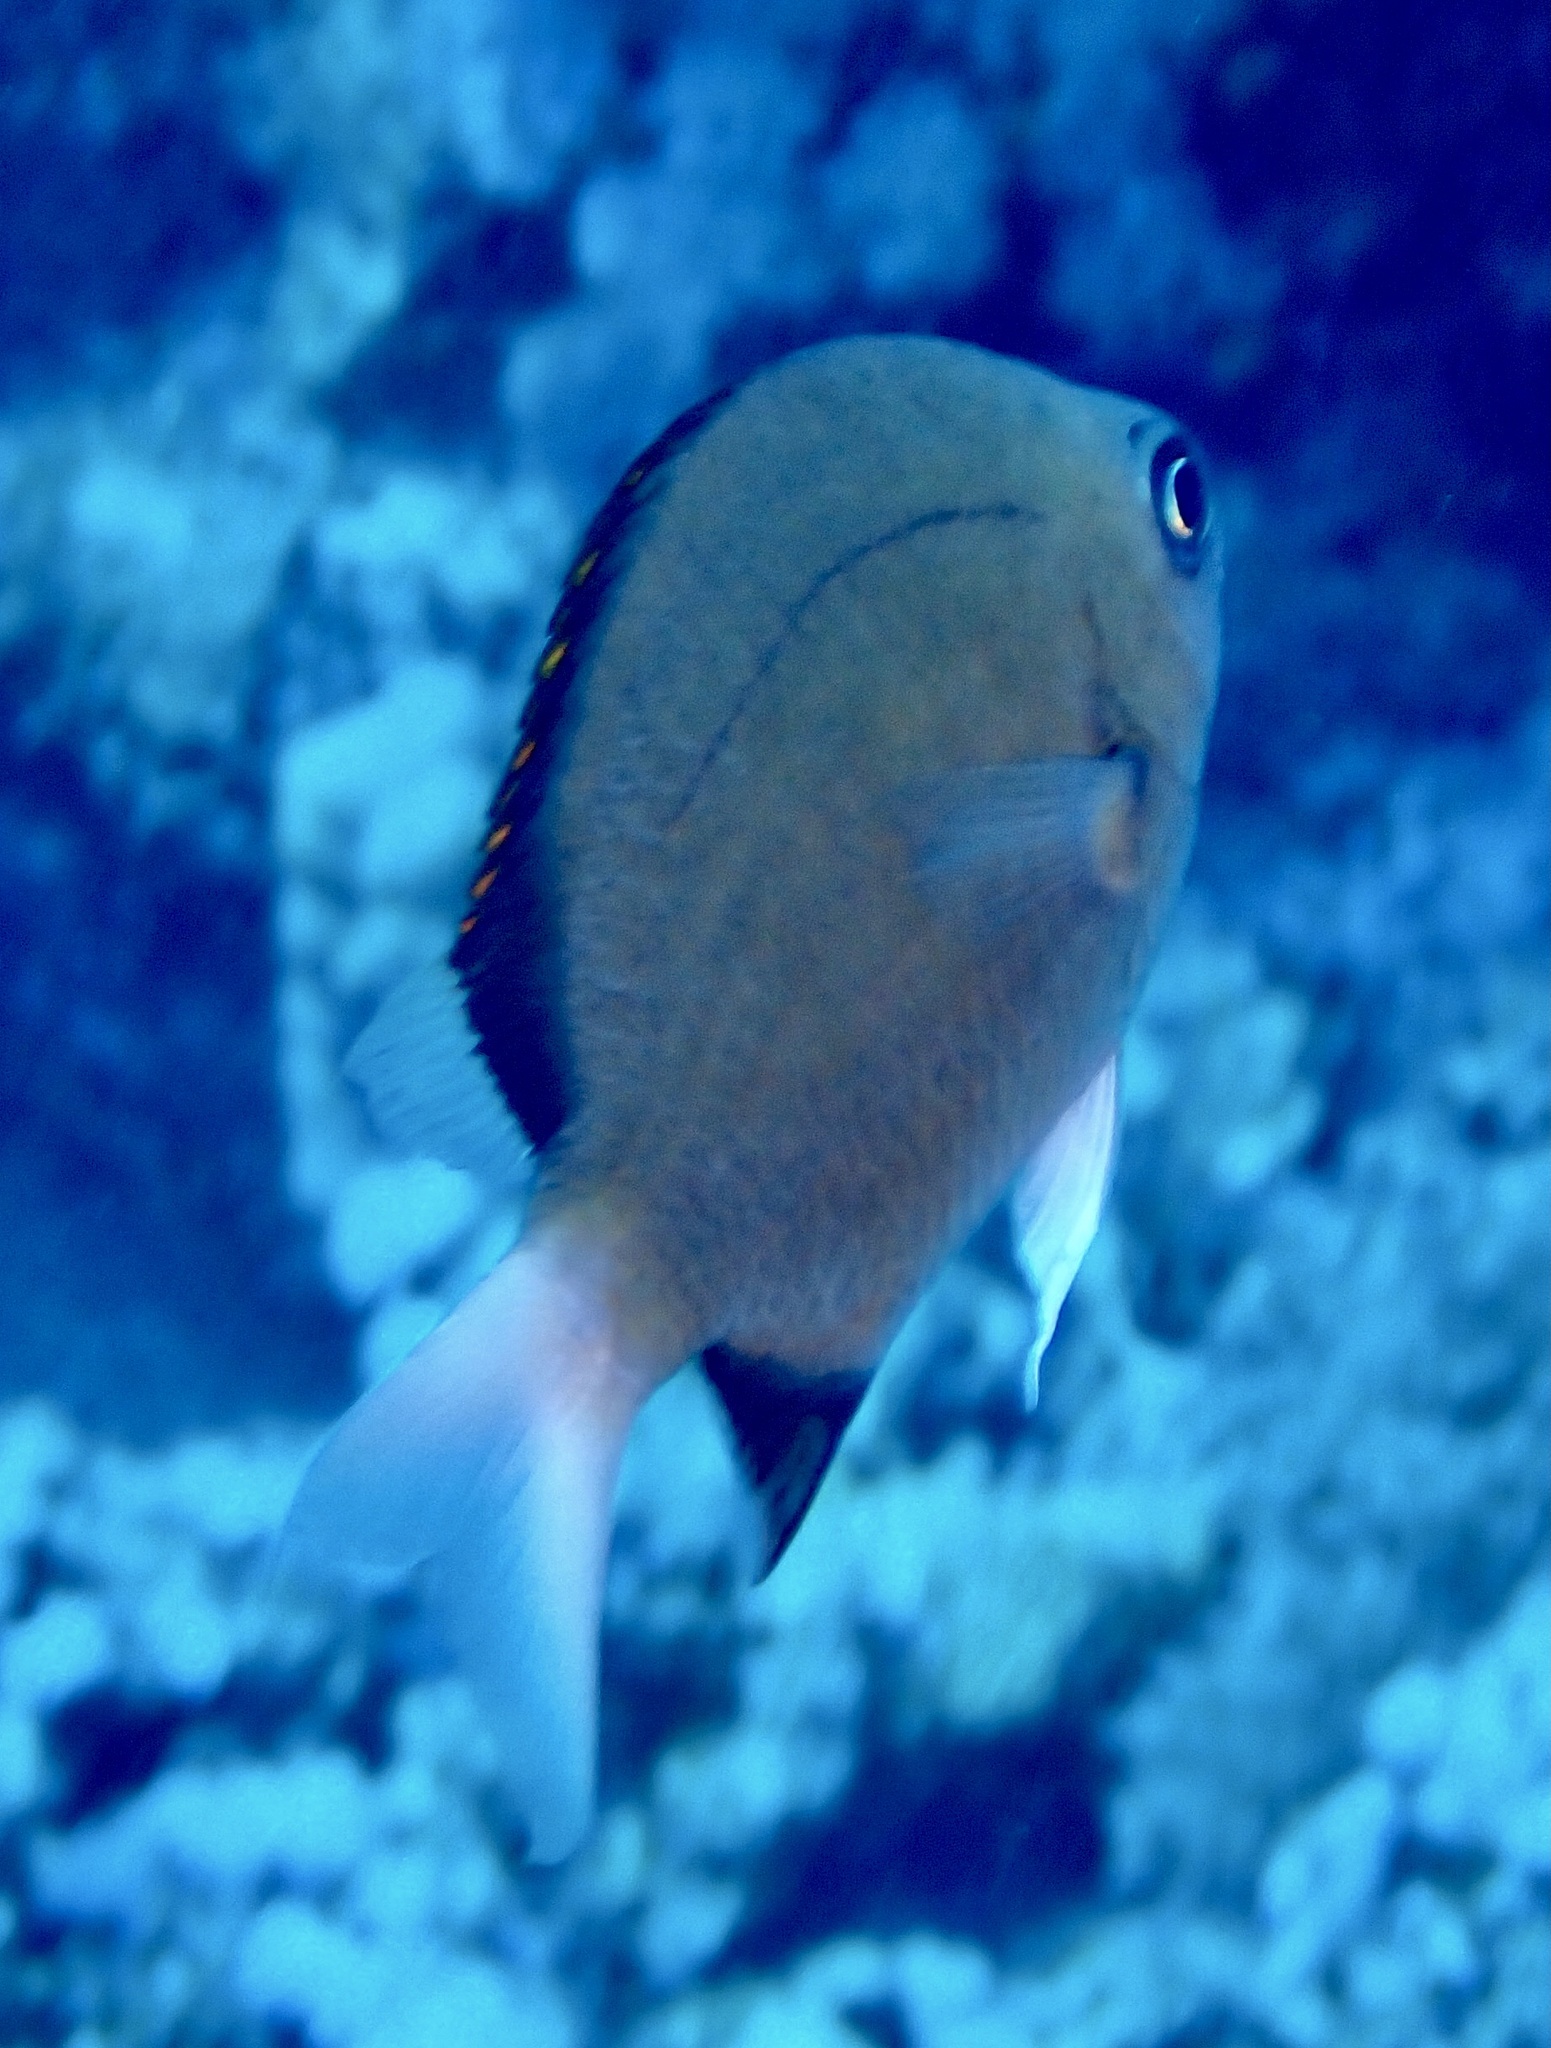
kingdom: Animalia
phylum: Chordata
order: Perciformes
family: Pomacentridae
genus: Chromis
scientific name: Chromis pembae
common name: Pemba chromis
